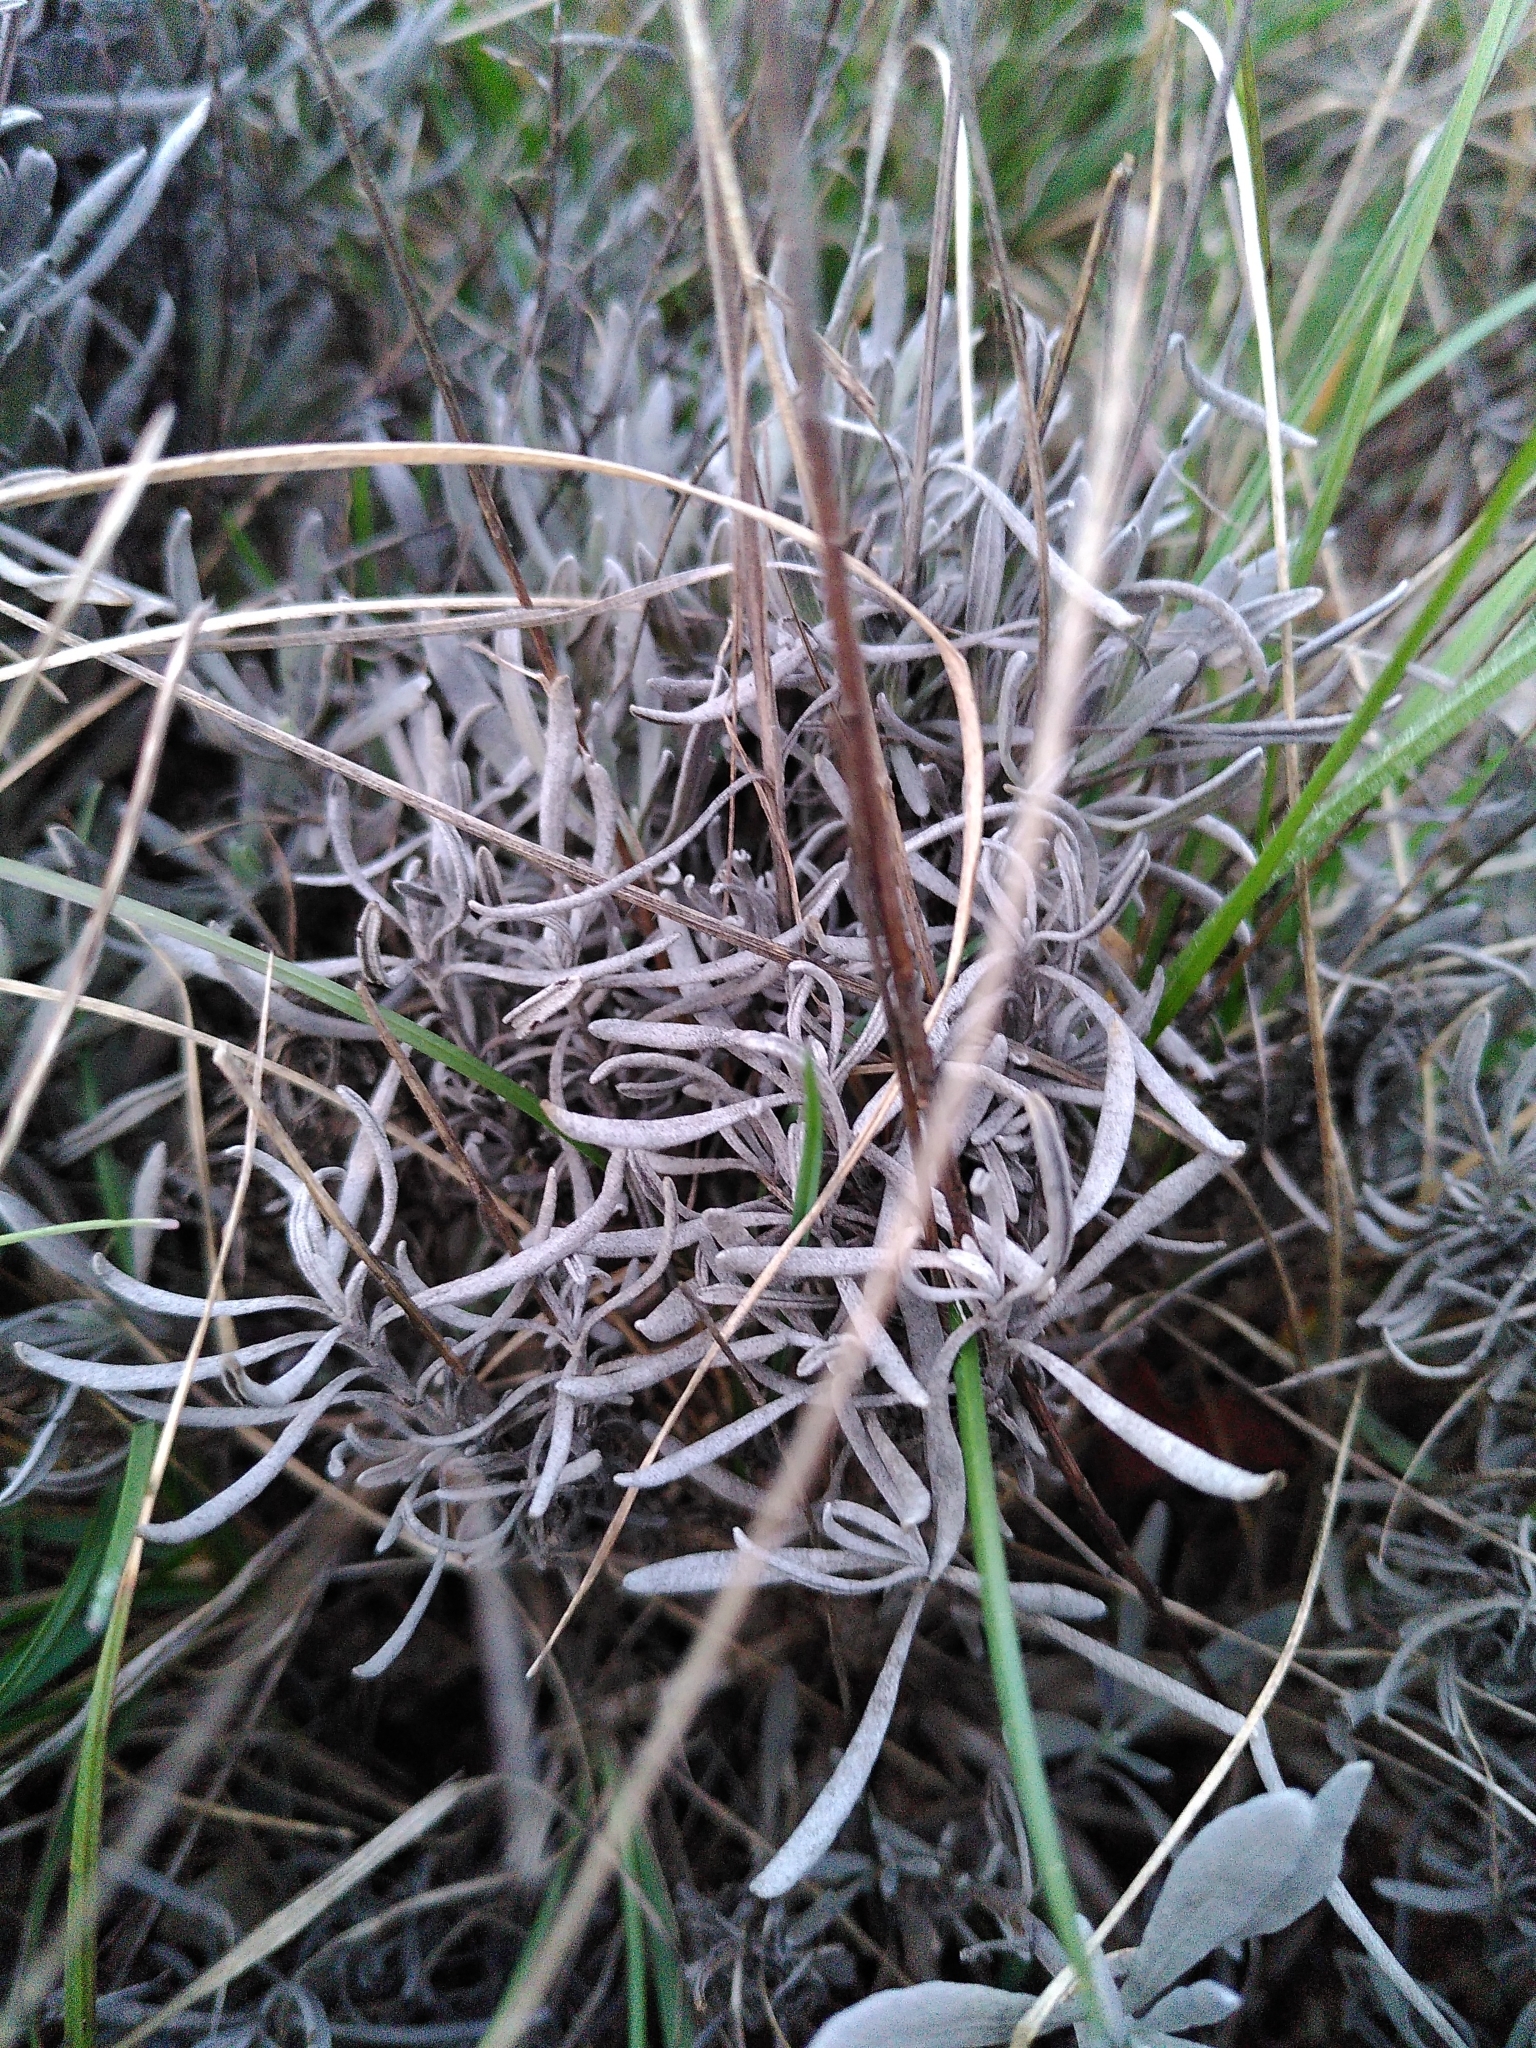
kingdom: Plantae
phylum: Tracheophyta
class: Magnoliopsida
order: Lamiales
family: Lamiaceae
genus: Lavandula
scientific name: Lavandula latifolia
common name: Spike lavendar
